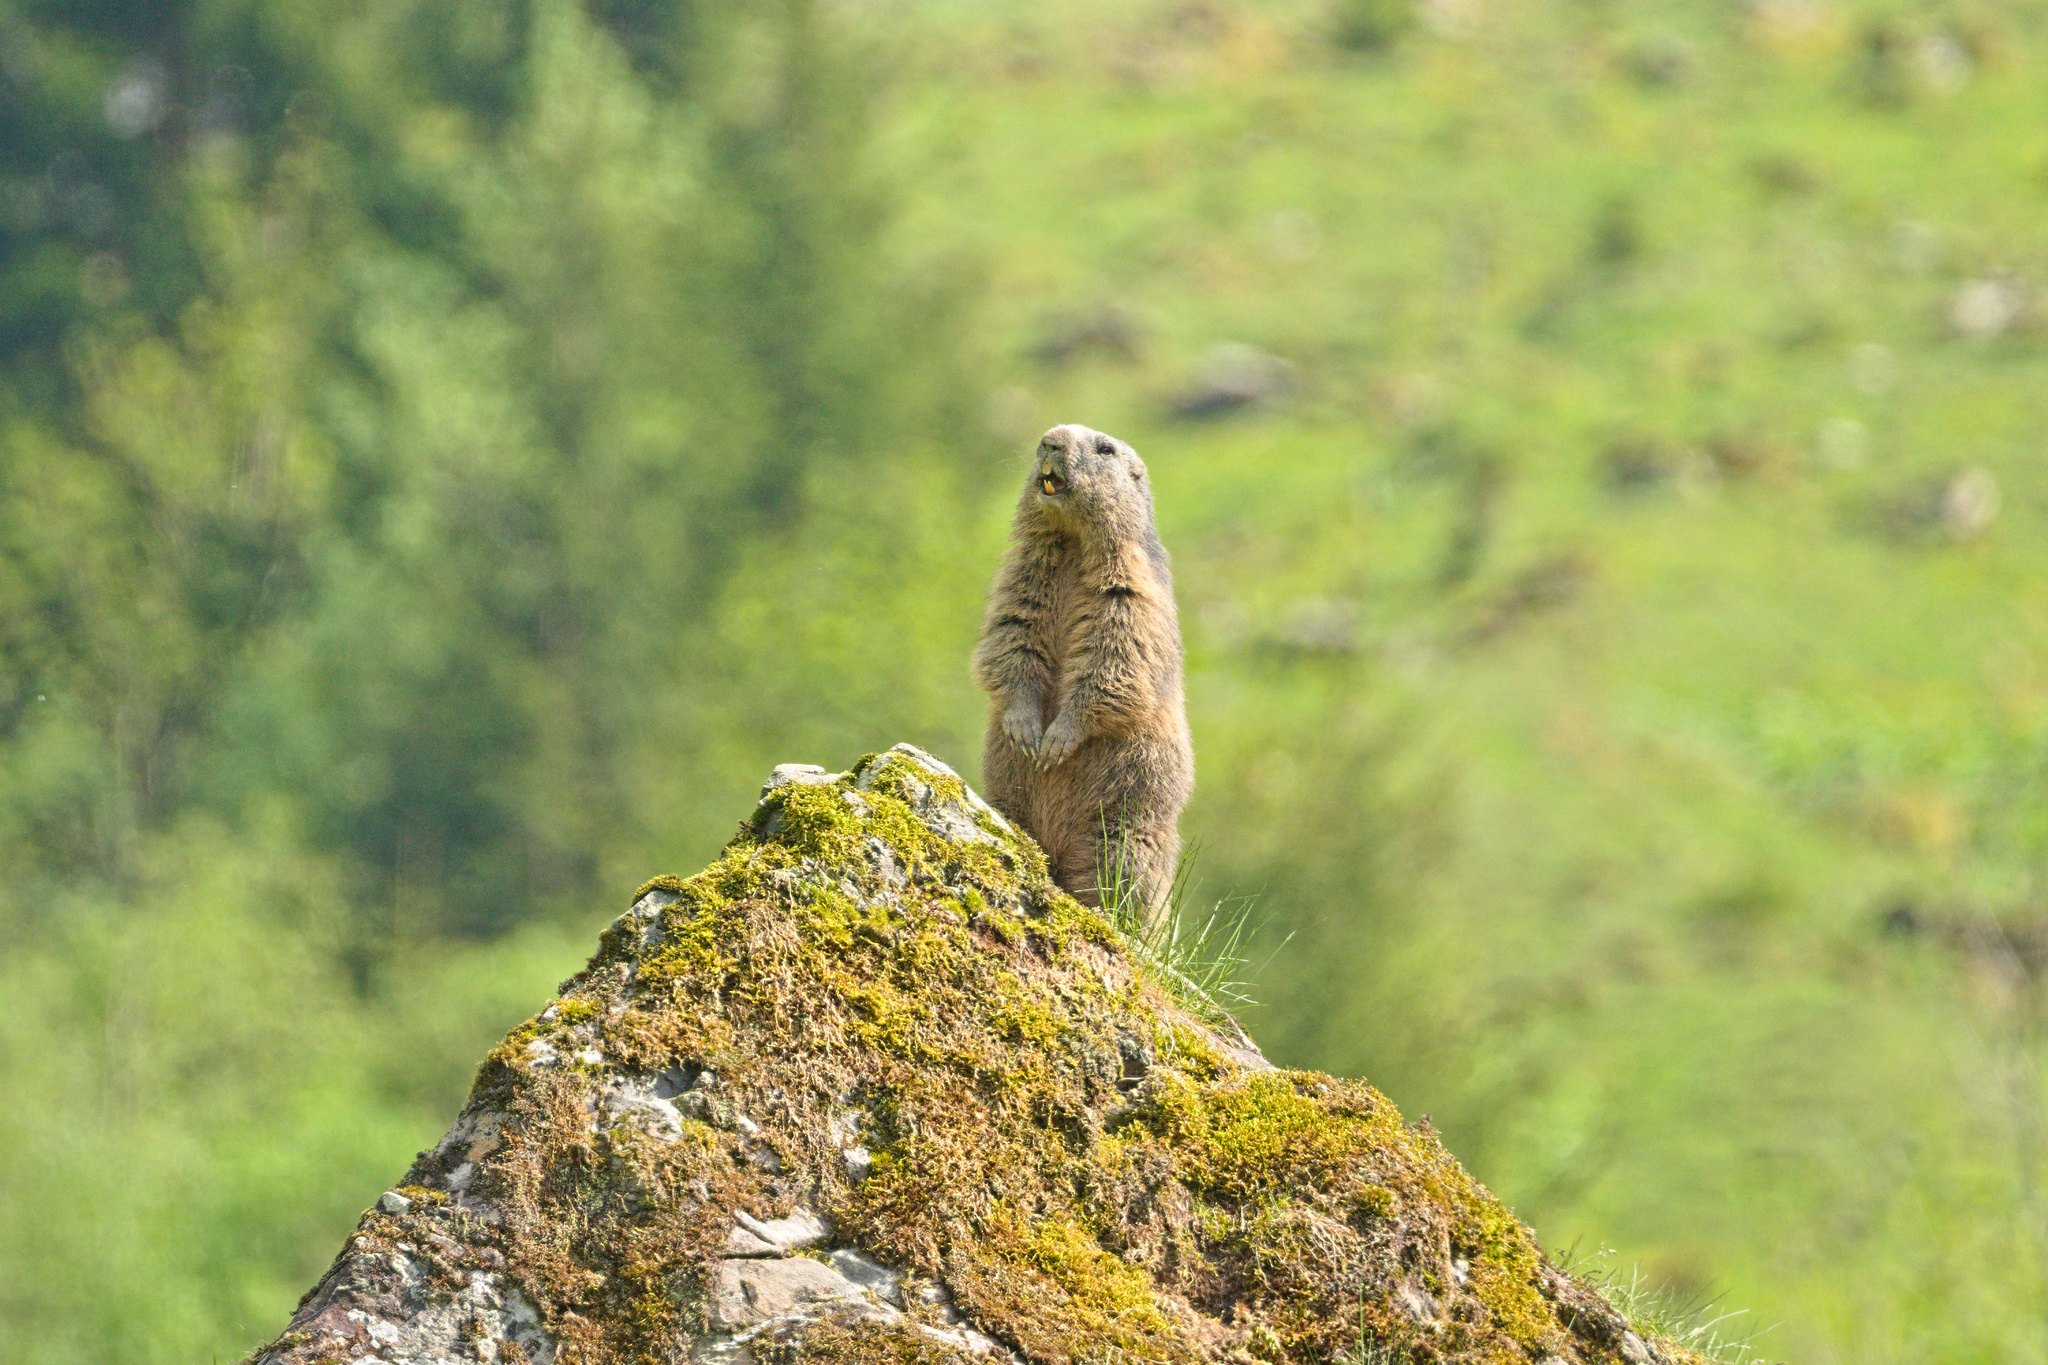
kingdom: Animalia
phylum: Chordata
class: Mammalia
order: Rodentia
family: Sciuridae
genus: Marmota
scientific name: Marmota marmota
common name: Alpine marmot
